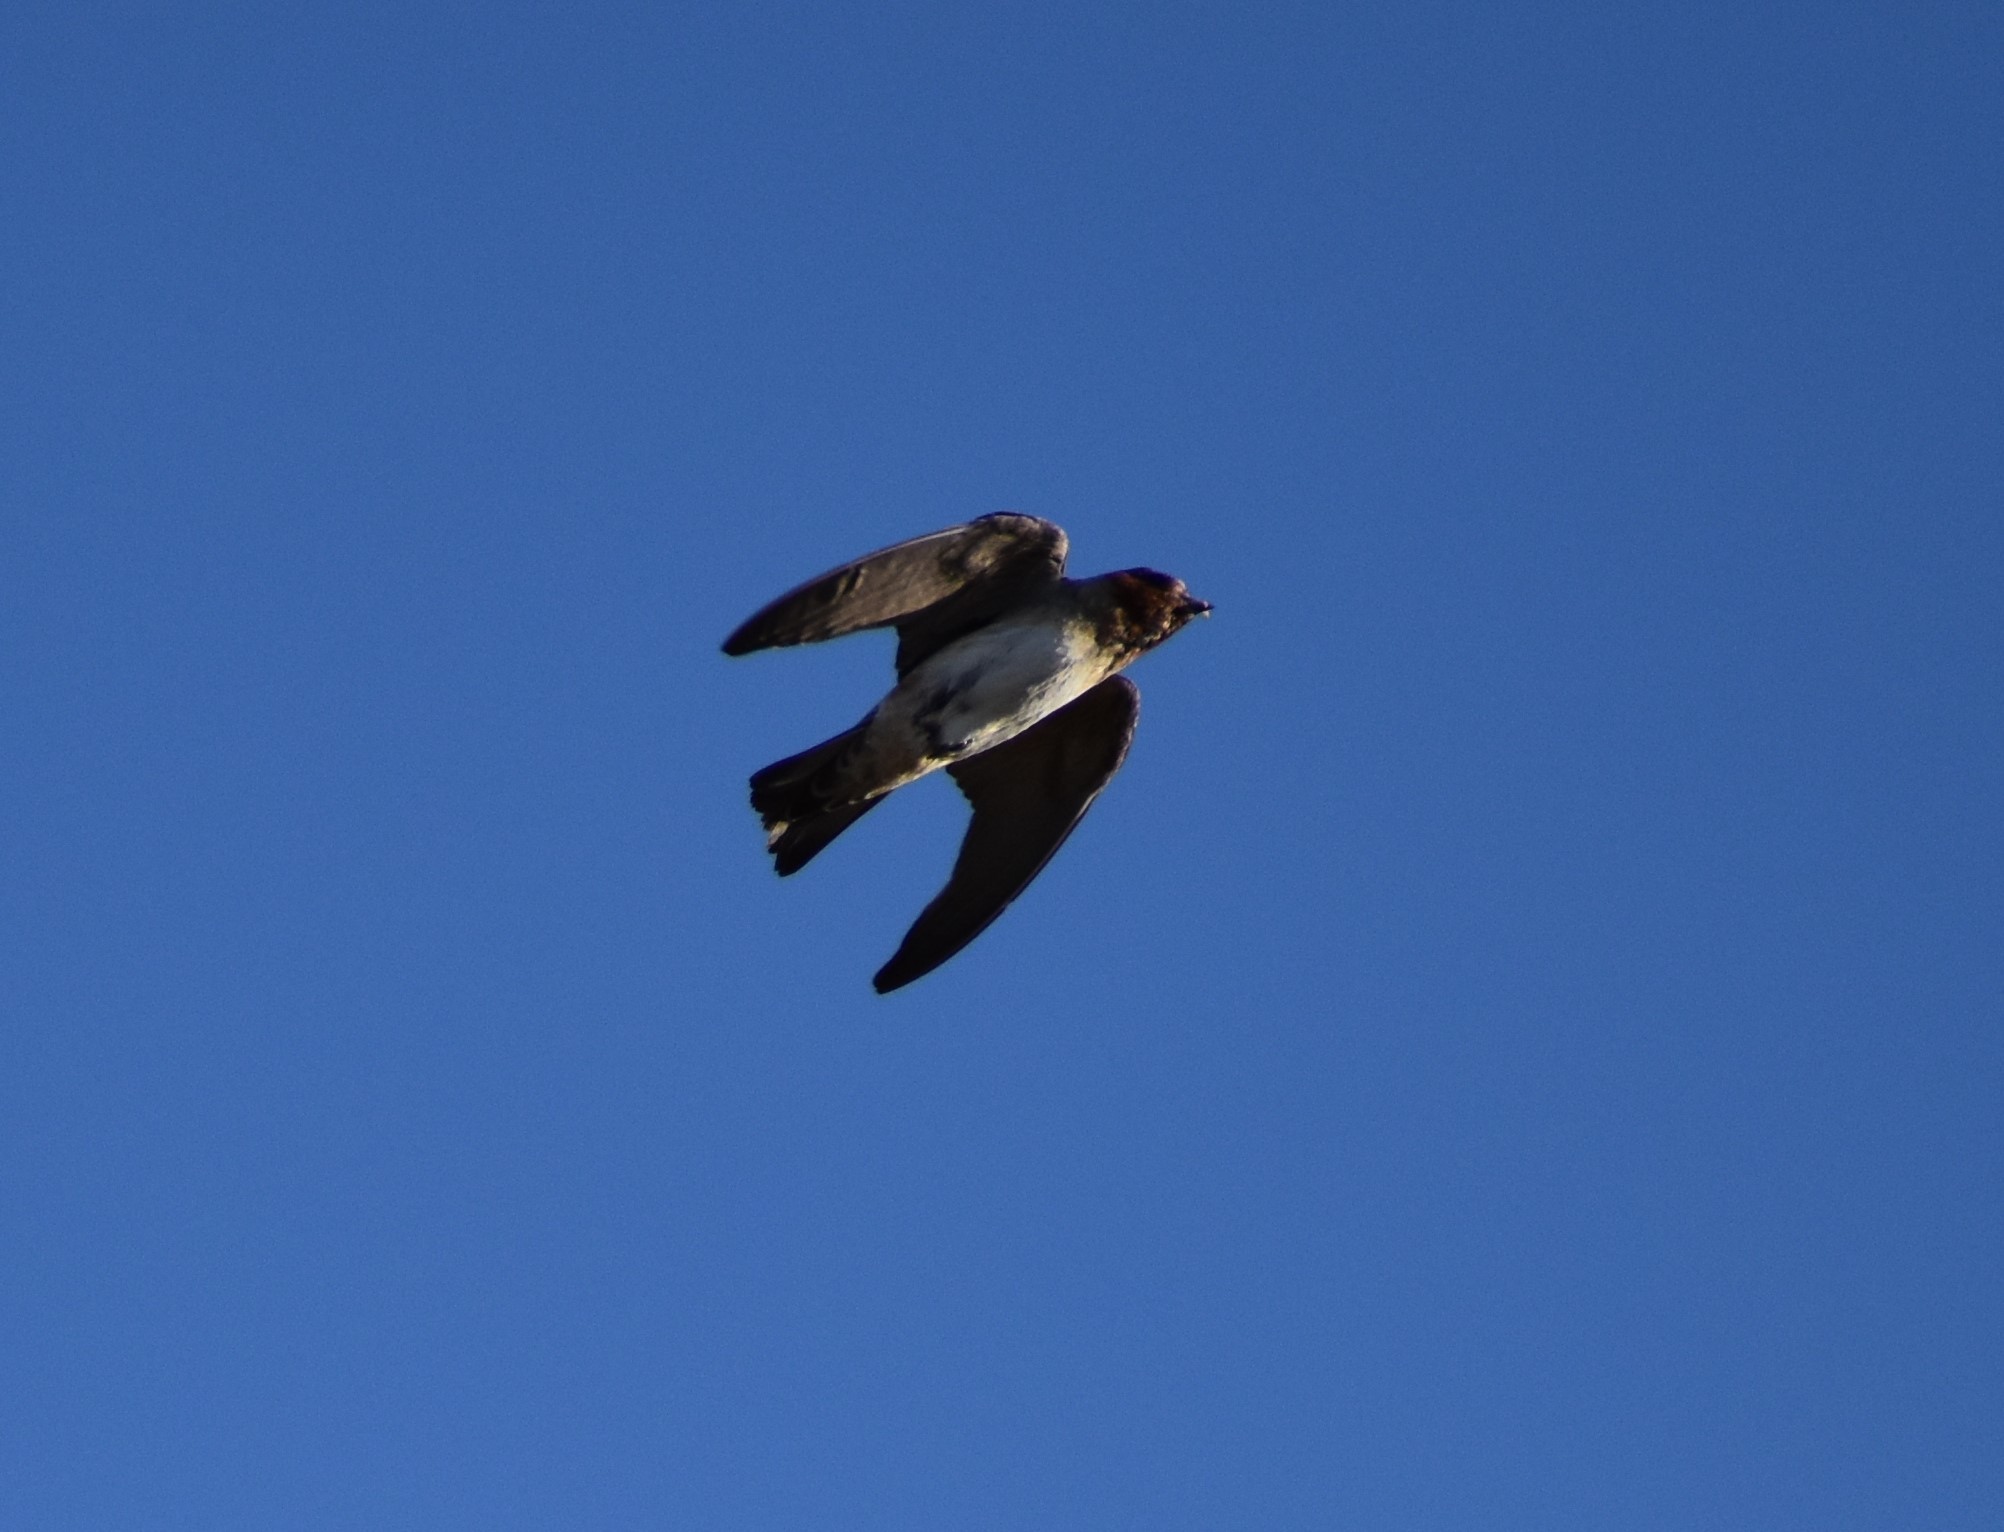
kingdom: Animalia
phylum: Chordata
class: Aves
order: Passeriformes
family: Hirundinidae
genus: Stelgidopteryx
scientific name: Stelgidopteryx serripennis
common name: Northern rough-winged swallow
